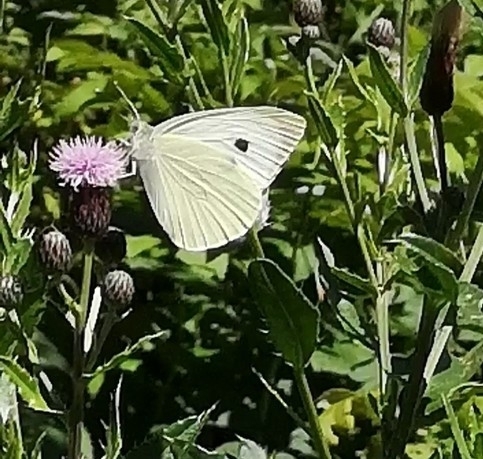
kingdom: Animalia
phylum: Arthropoda
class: Insecta
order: Lepidoptera
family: Pieridae
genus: Pieris
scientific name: Pieris brassicae
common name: Large white
